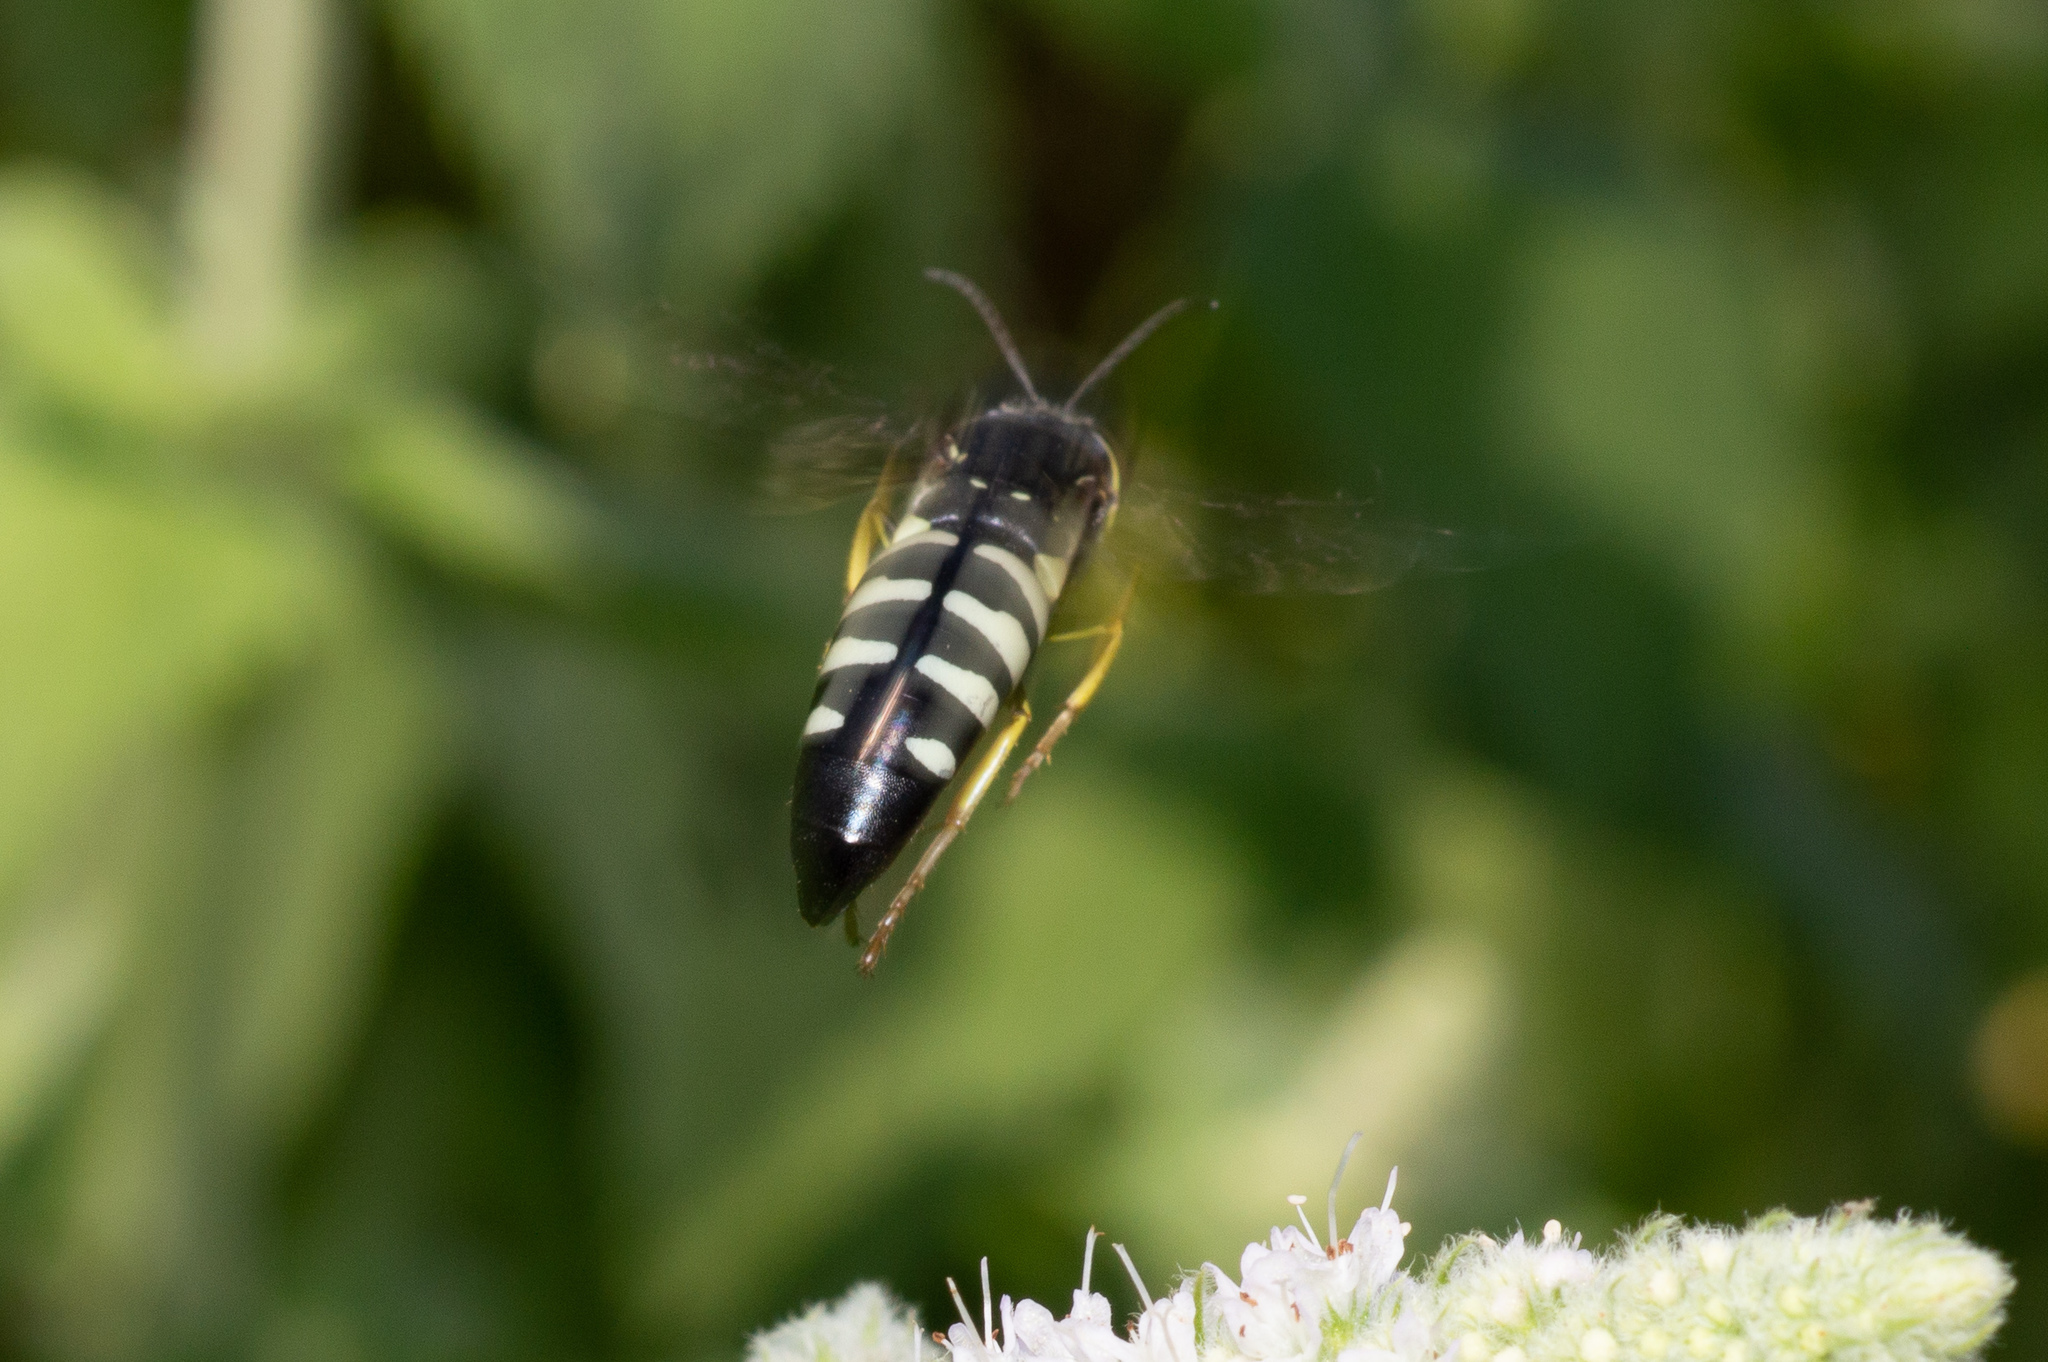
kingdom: Animalia
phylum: Arthropoda
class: Insecta
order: Hymenoptera
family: Crabronidae
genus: Bicyrtes
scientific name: Bicyrtes quadrifasciatus
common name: Four-banded stink bug hunter wasp
